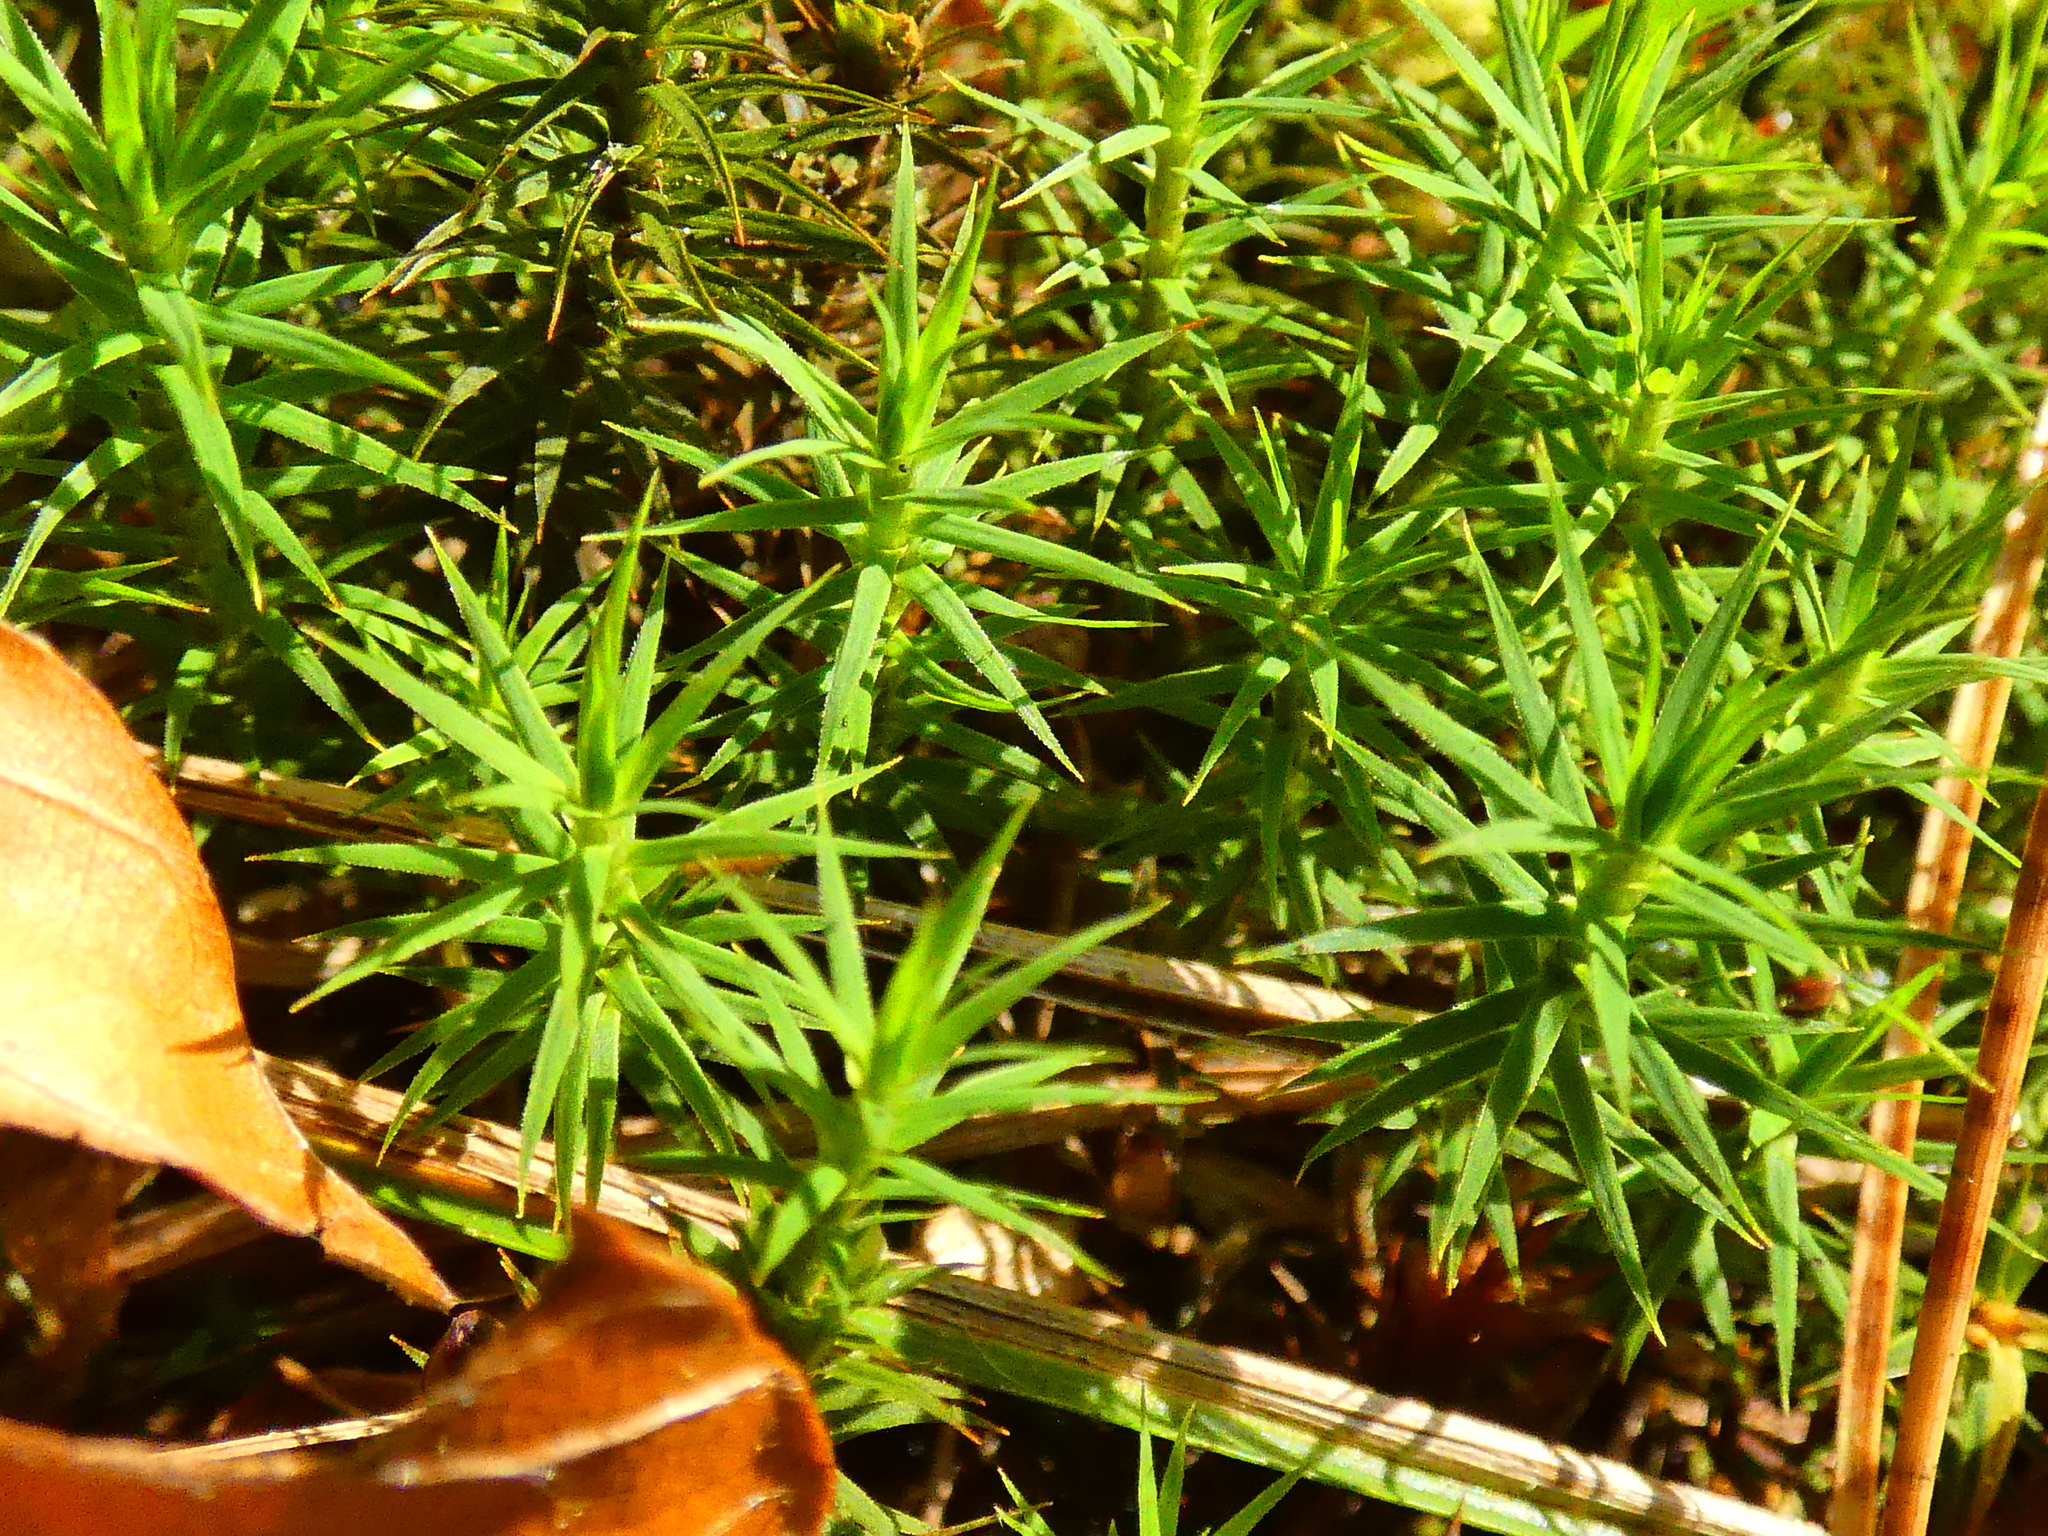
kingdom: Plantae
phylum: Bryophyta
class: Polytrichopsida
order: Polytrichales
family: Polytrichaceae
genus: Polytrichum
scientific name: Polytrichum formosum
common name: Bank haircap moss
